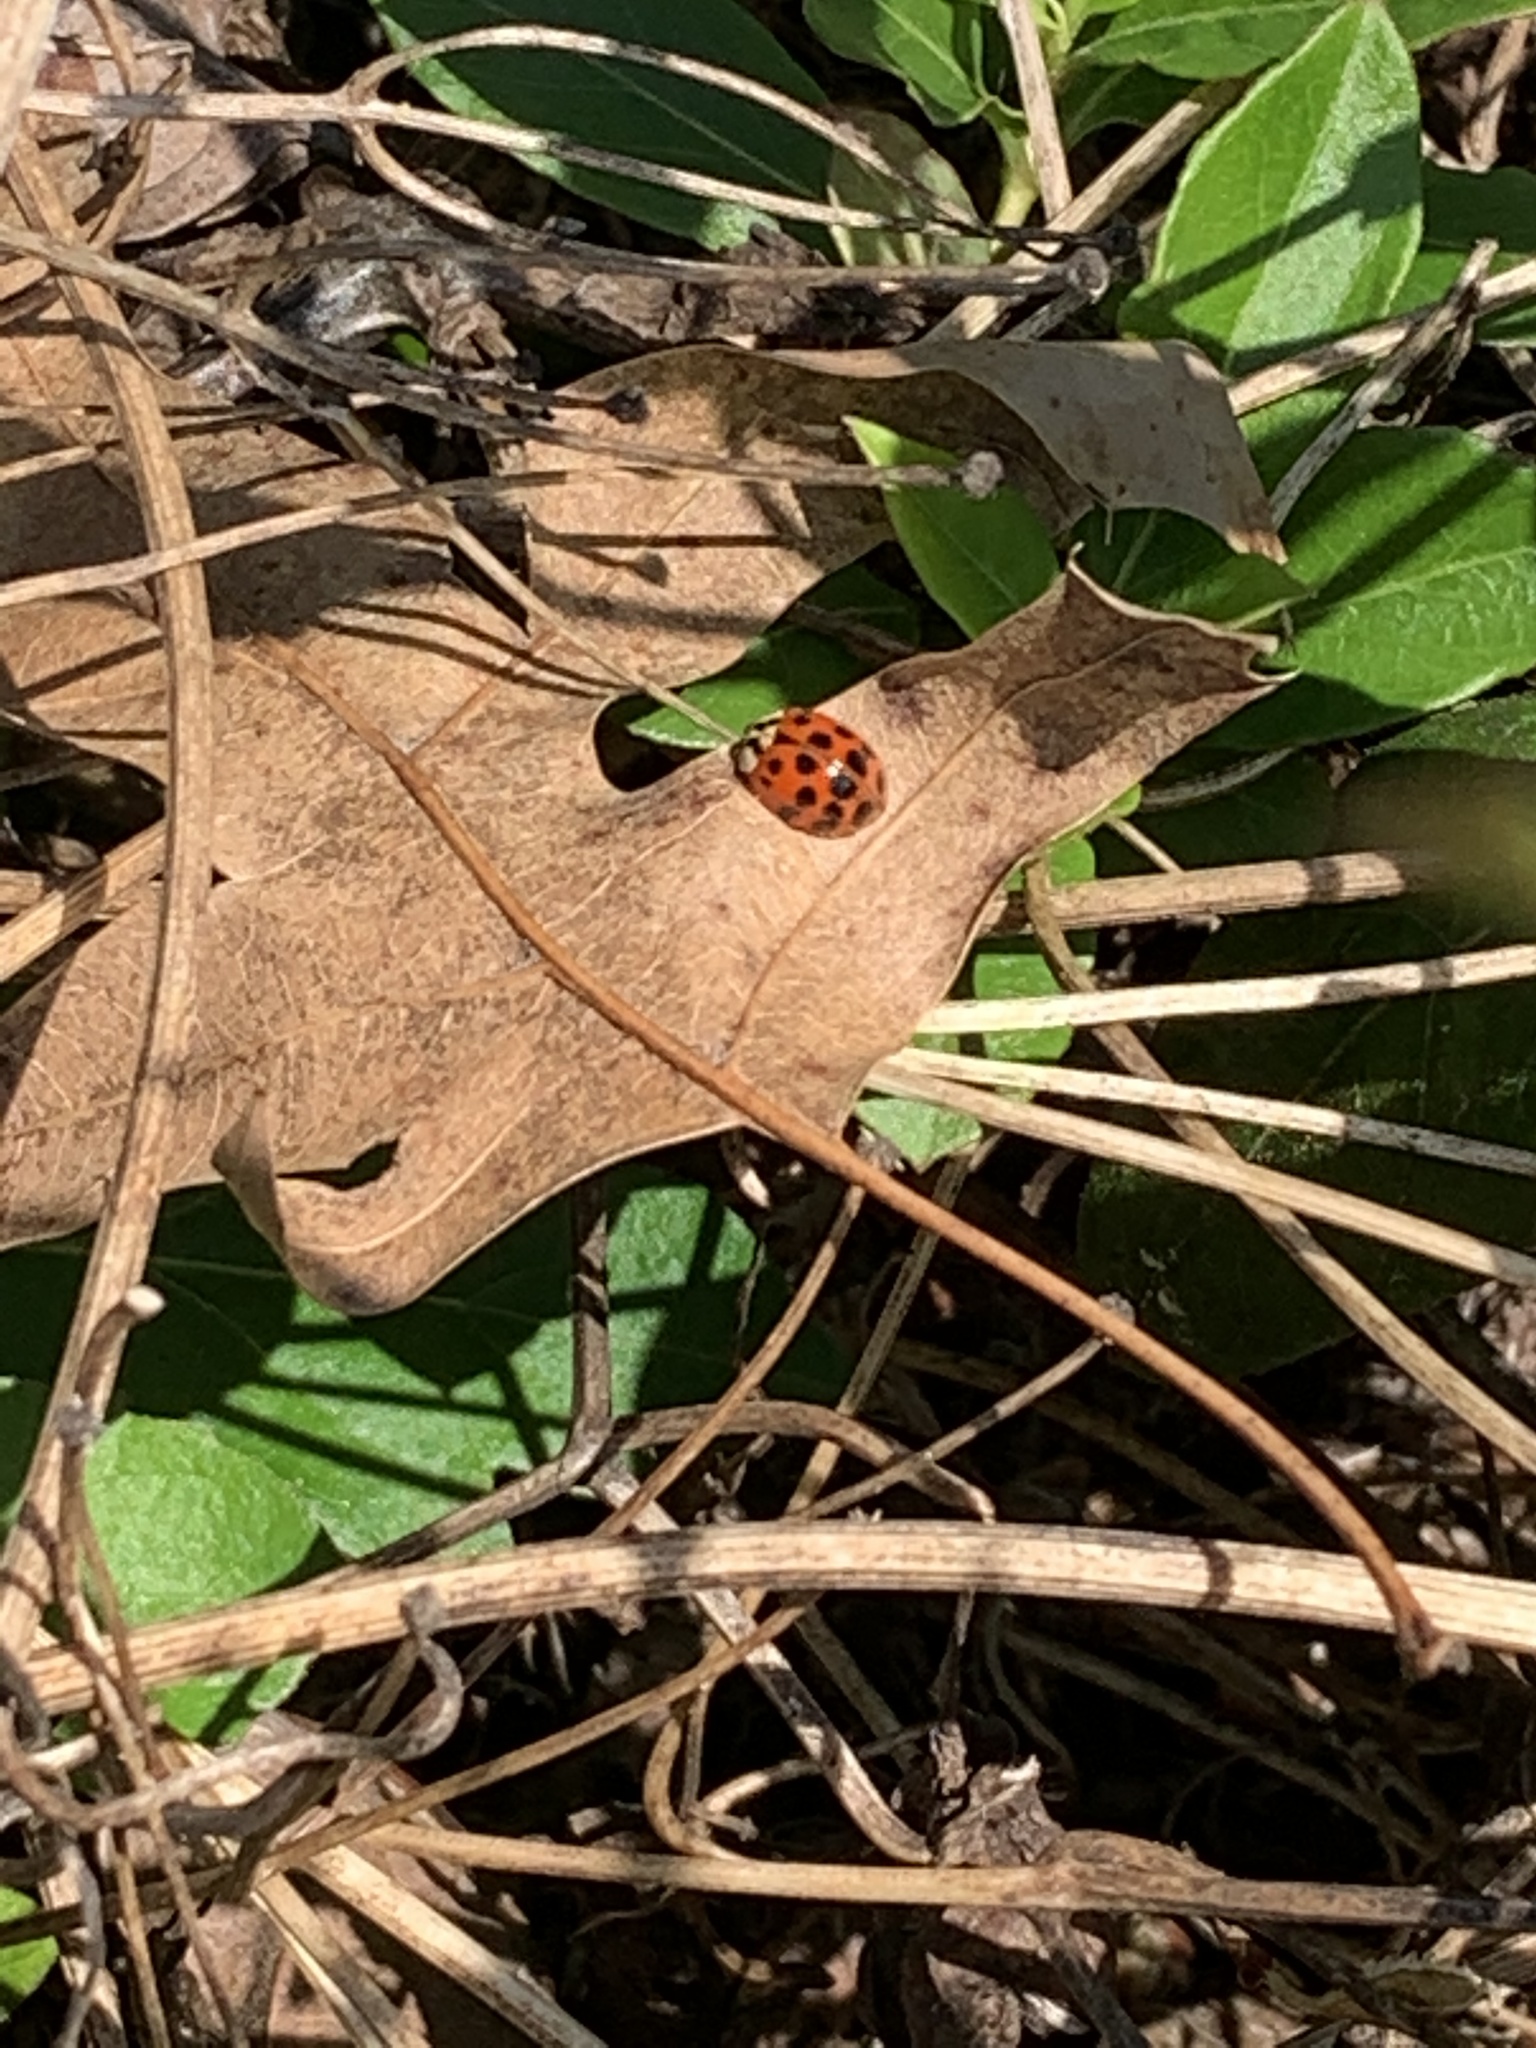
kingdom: Animalia
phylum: Arthropoda
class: Insecta
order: Coleoptera
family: Coccinellidae
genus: Harmonia
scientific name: Harmonia axyridis
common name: Harlequin ladybird
